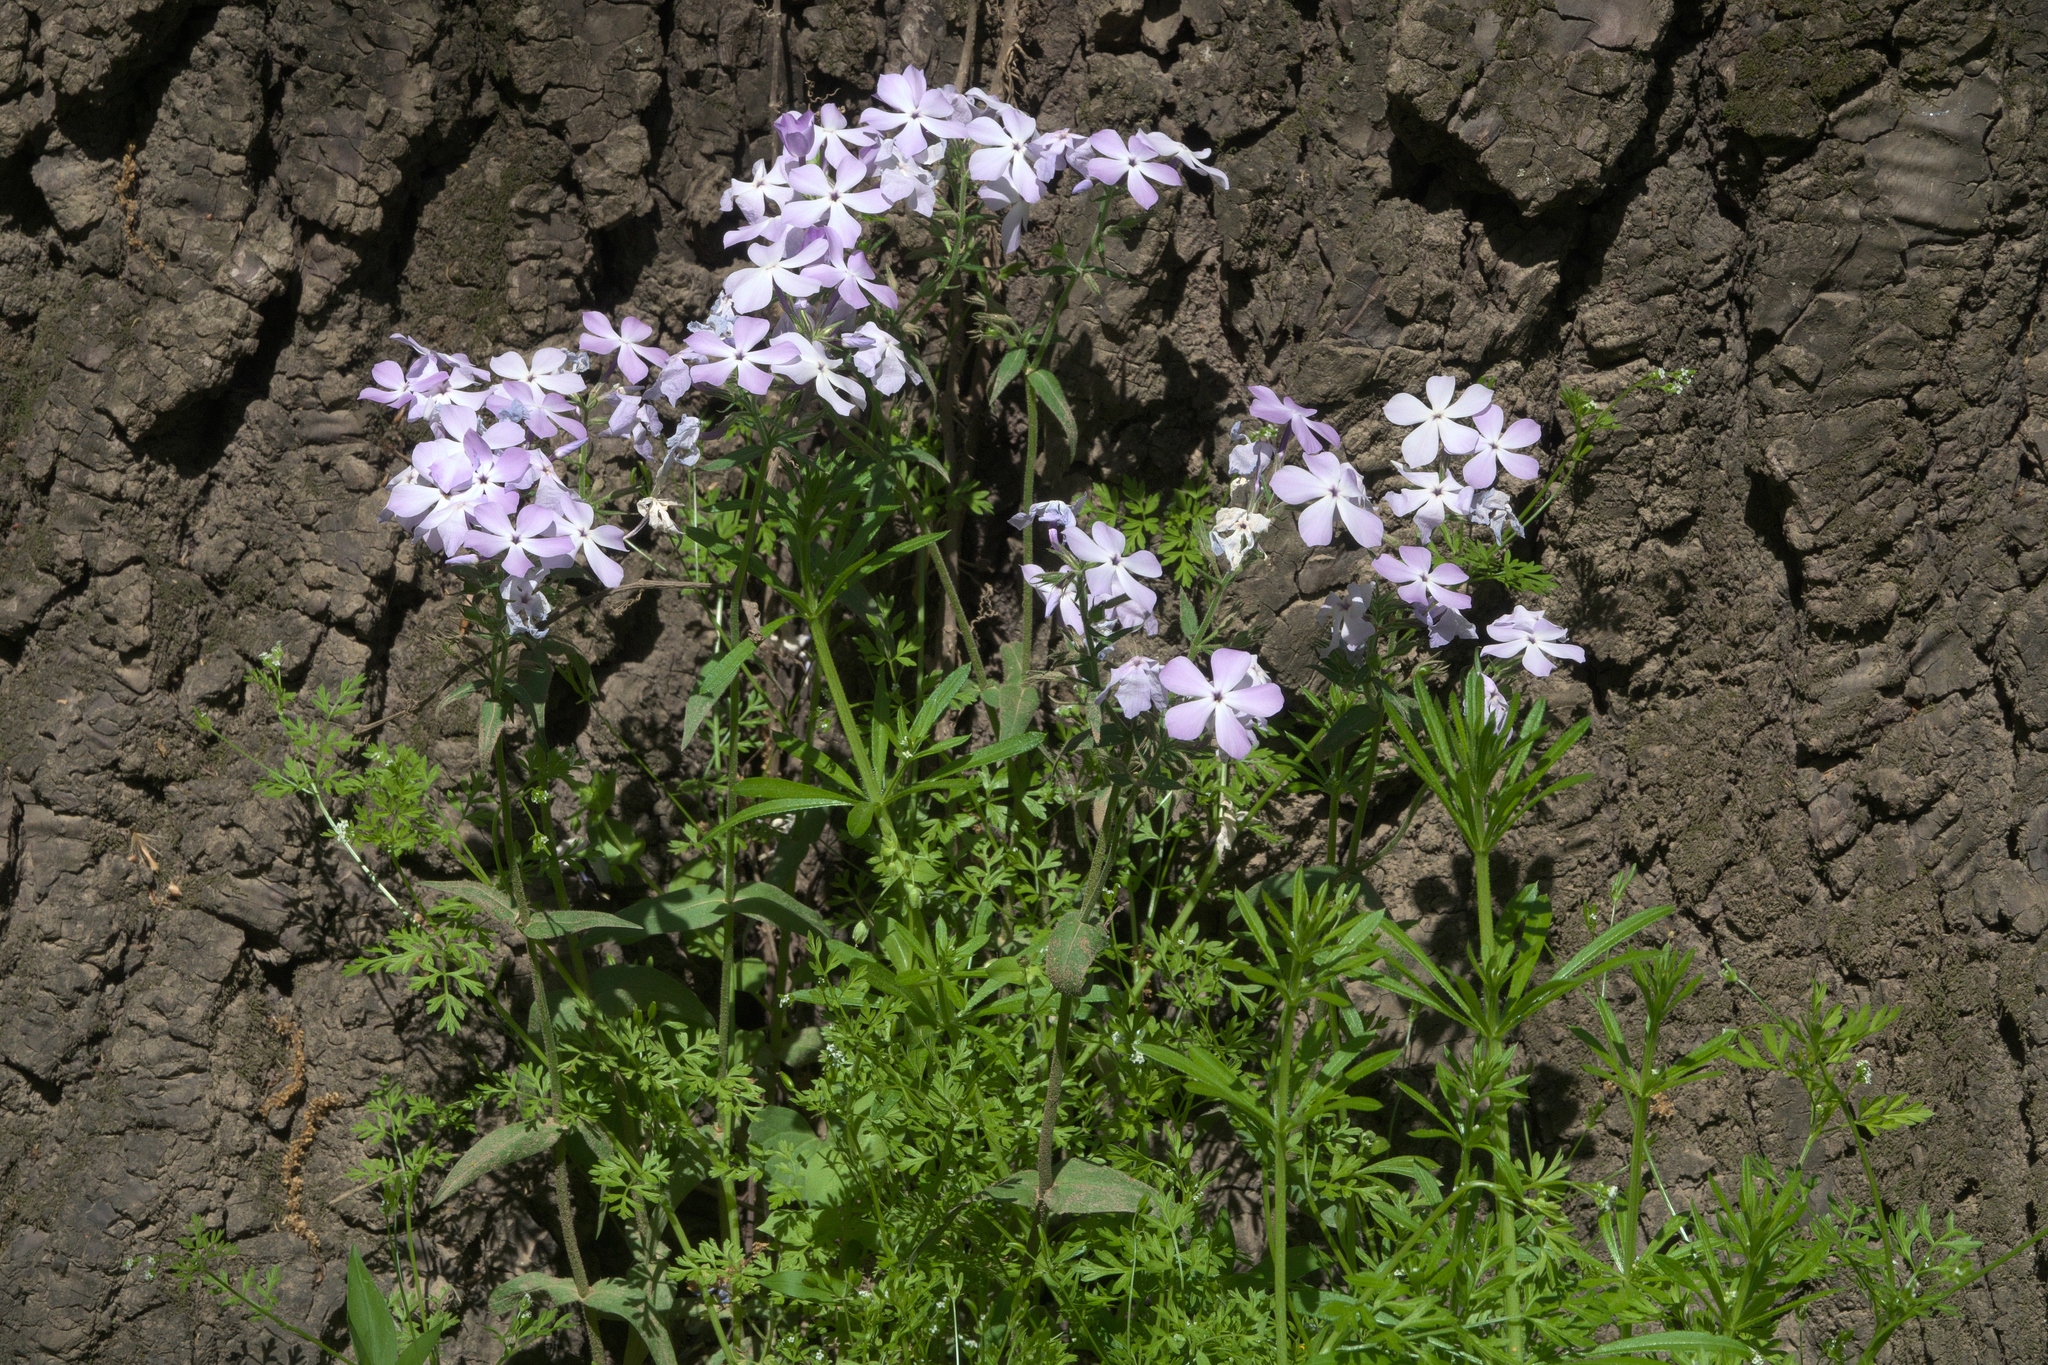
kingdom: Plantae
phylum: Tracheophyta
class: Magnoliopsida
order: Ericales
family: Polemoniaceae
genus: Phlox
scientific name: Phlox divaricata
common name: Blue phlox
